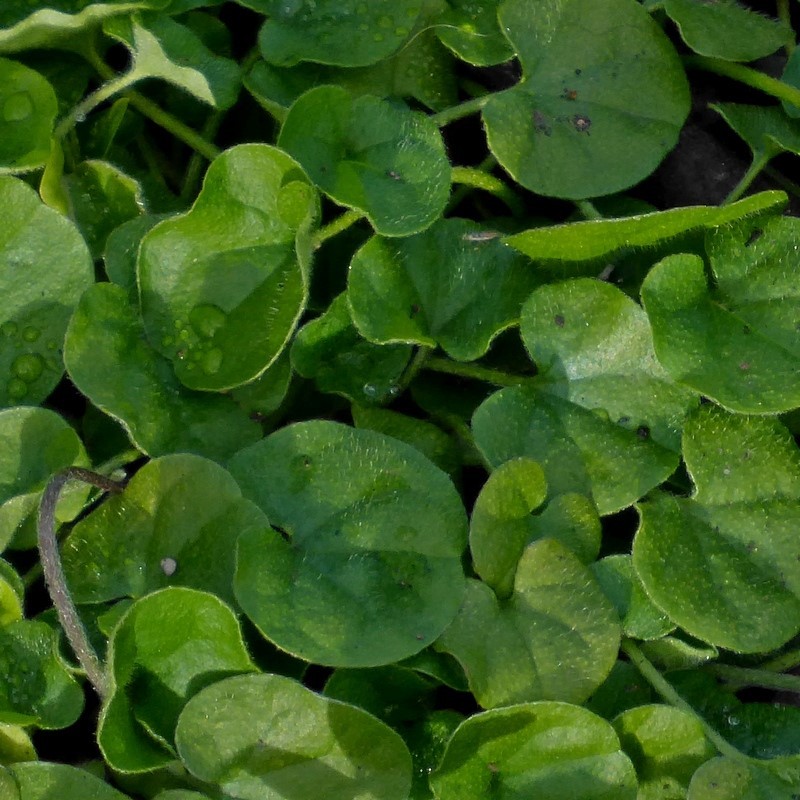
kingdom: Plantae
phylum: Tracheophyta
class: Magnoliopsida
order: Solanales
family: Convolvulaceae
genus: Dichondra
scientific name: Dichondra repens
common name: Kidneyweed
